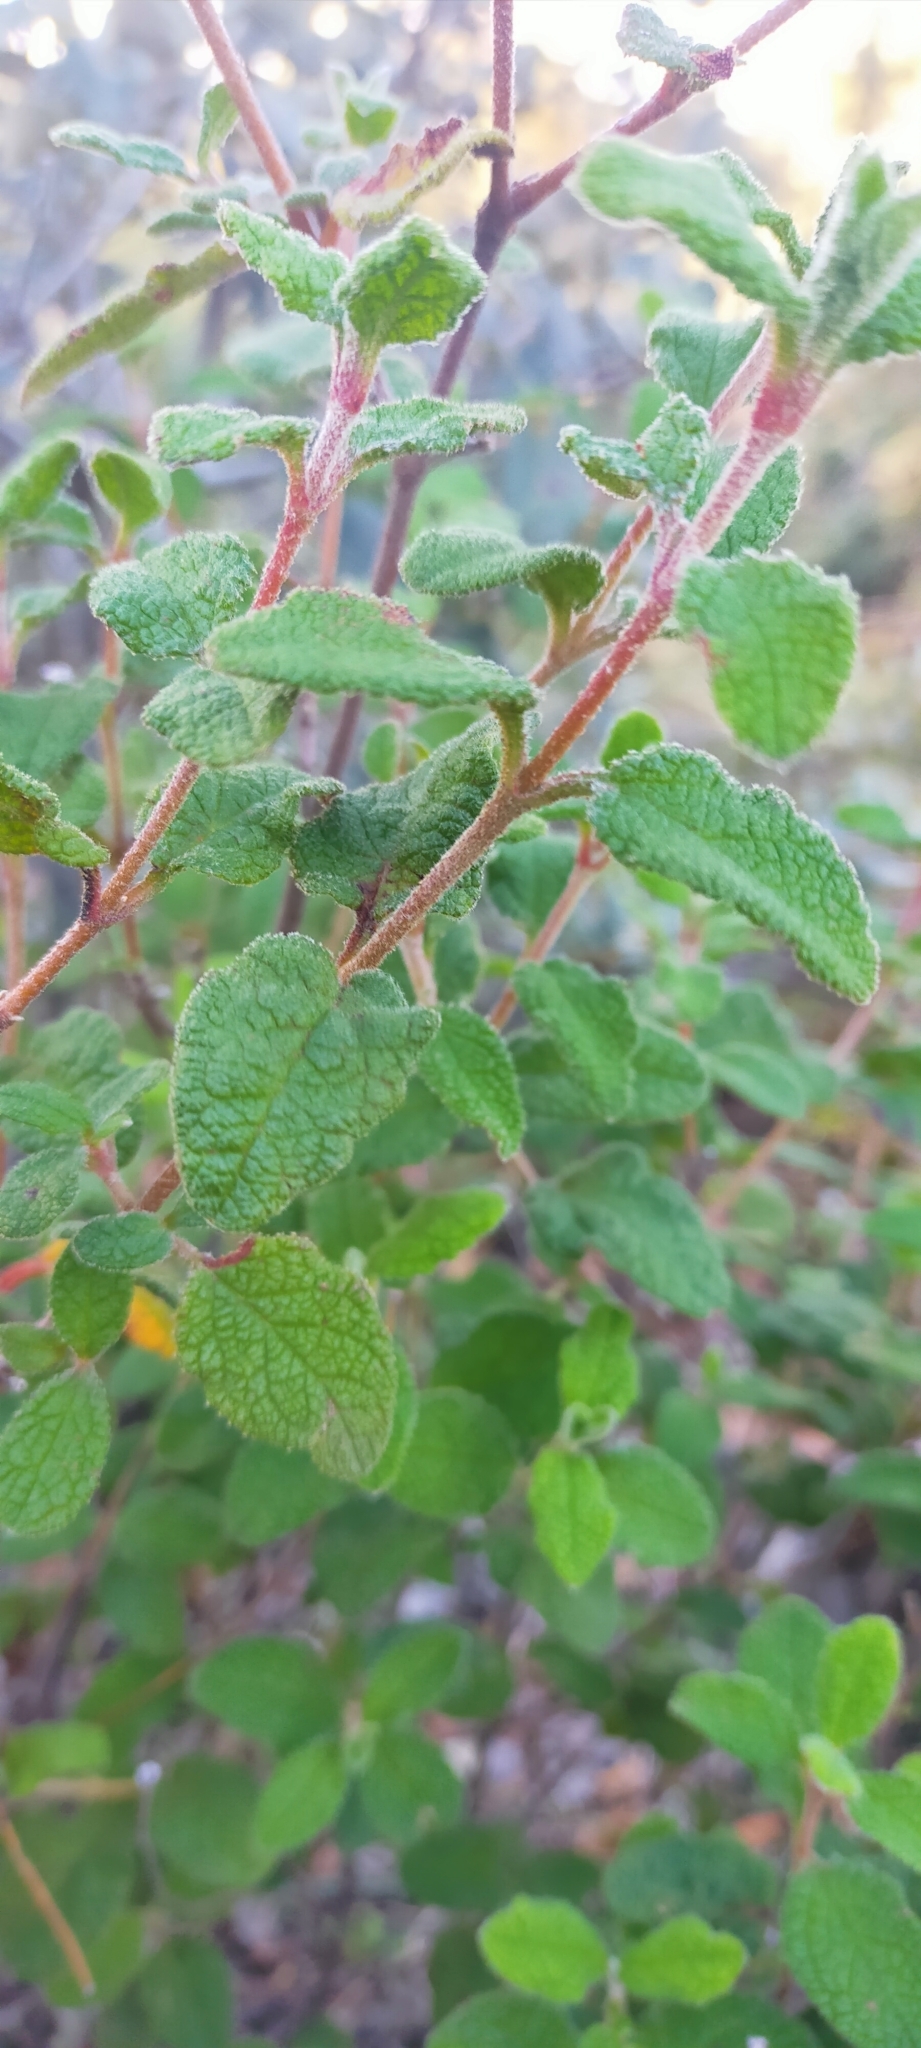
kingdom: Plantae
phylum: Tracheophyta
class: Magnoliopsida
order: Malvales
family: Cistaceae
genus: Cistus
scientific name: Cistus salviifolius
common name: Salvia cistus
